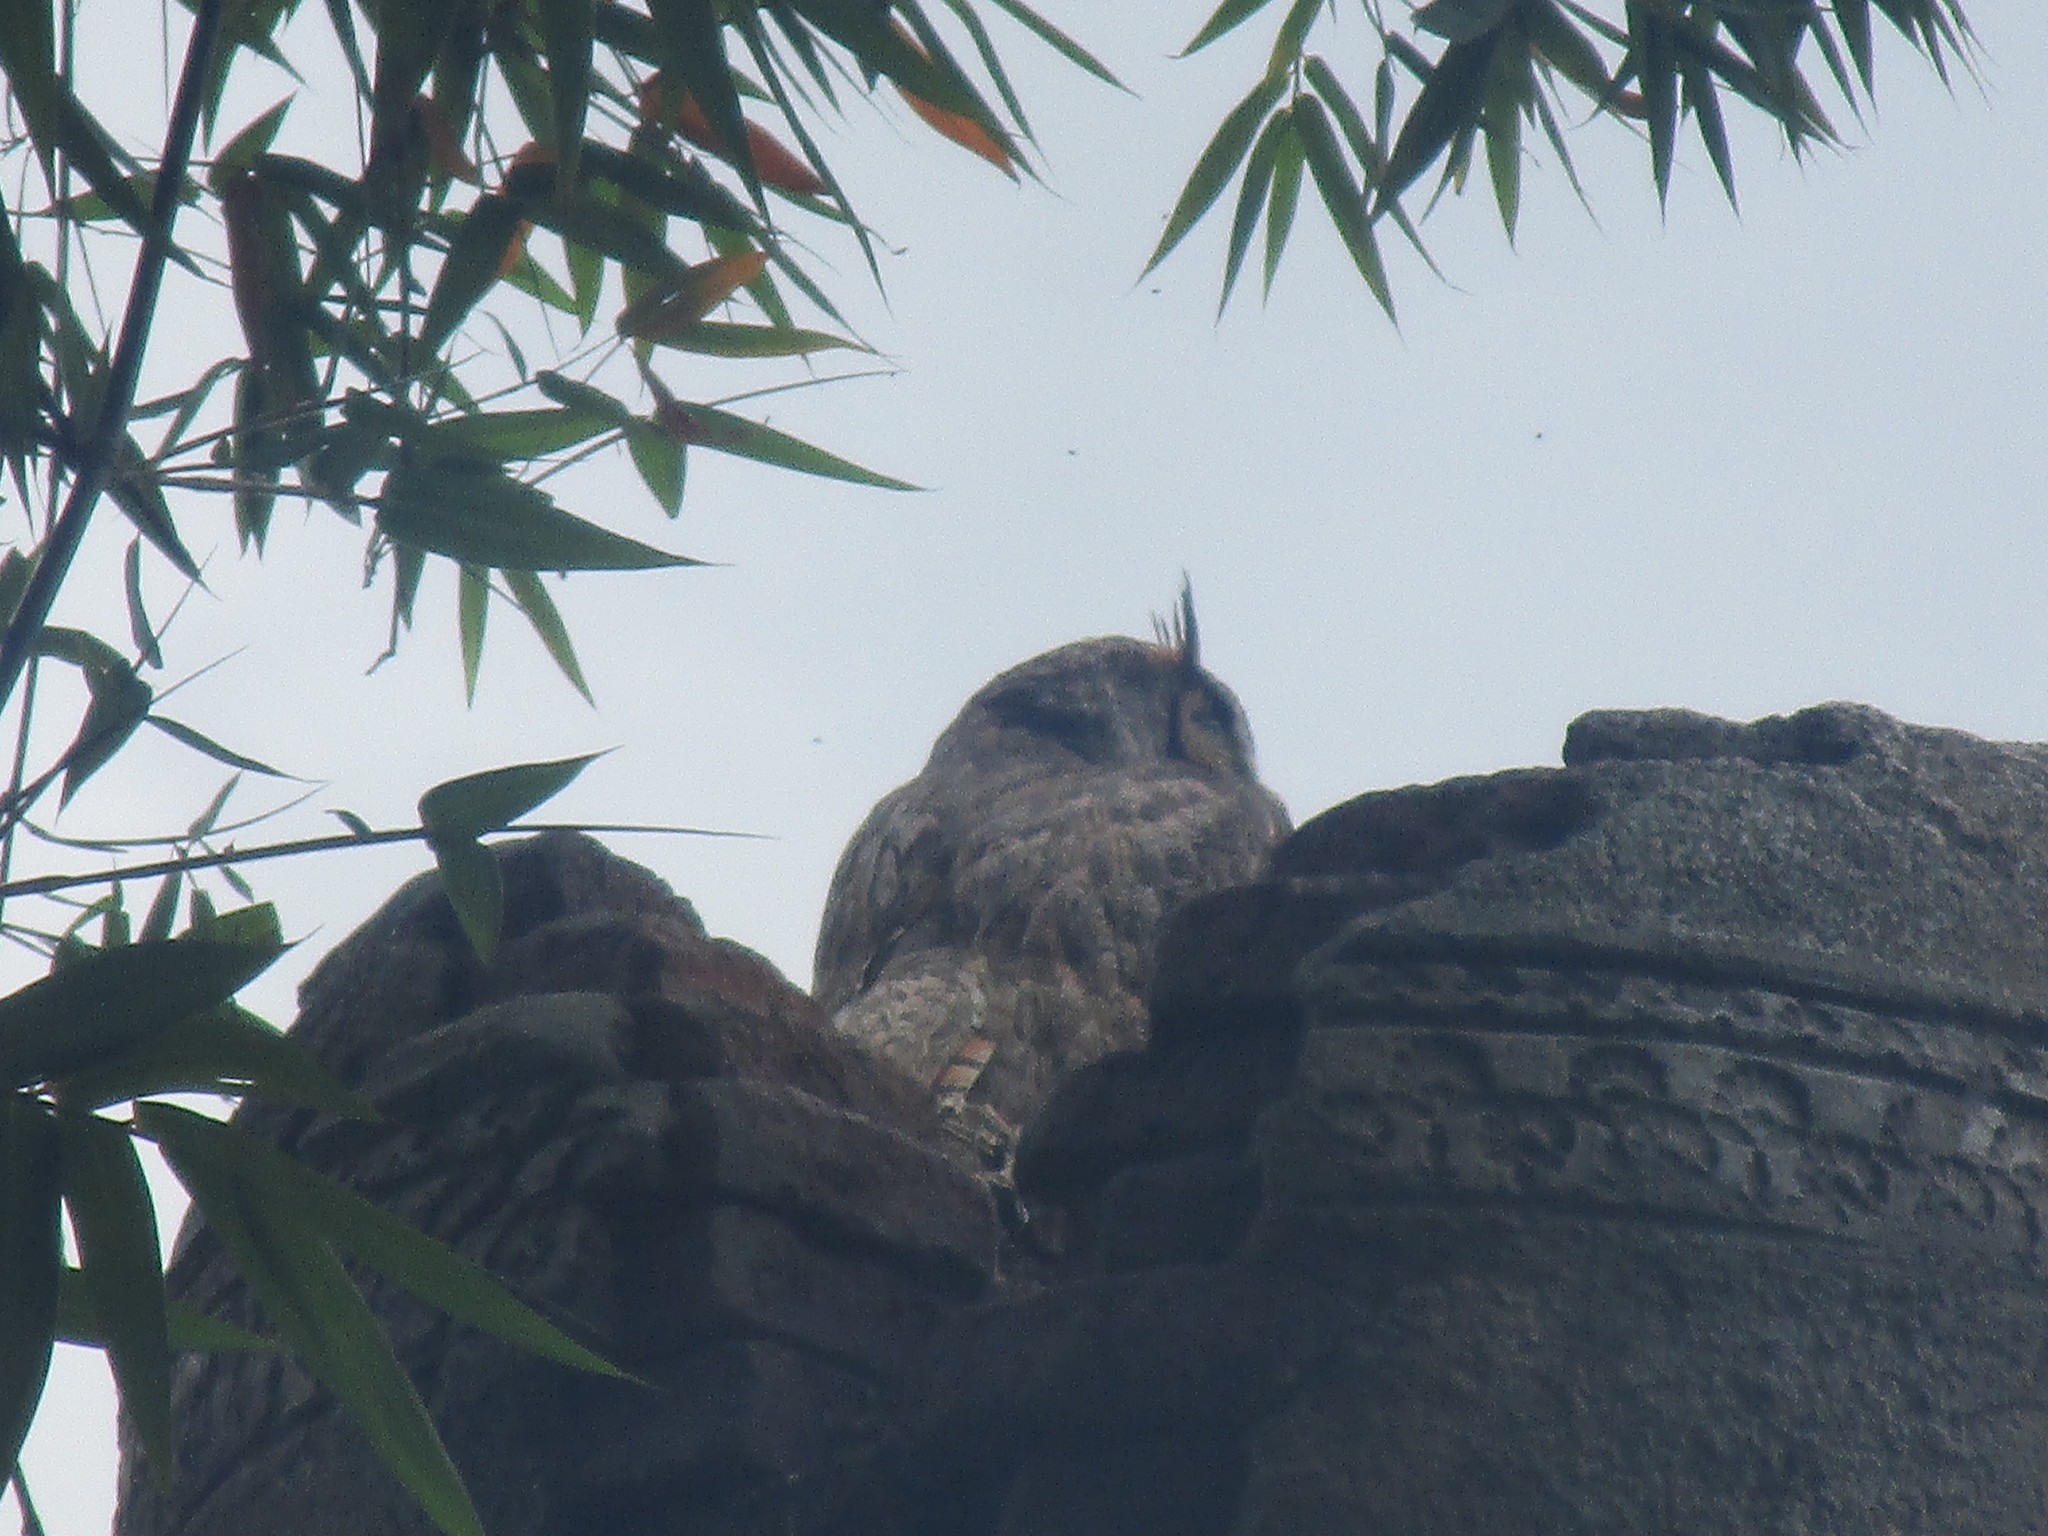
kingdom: Animalia
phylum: Chordata
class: Aves
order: Strigiformes
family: Strigidae
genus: Bubo
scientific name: Bubo virginianus
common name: Great horned owl
